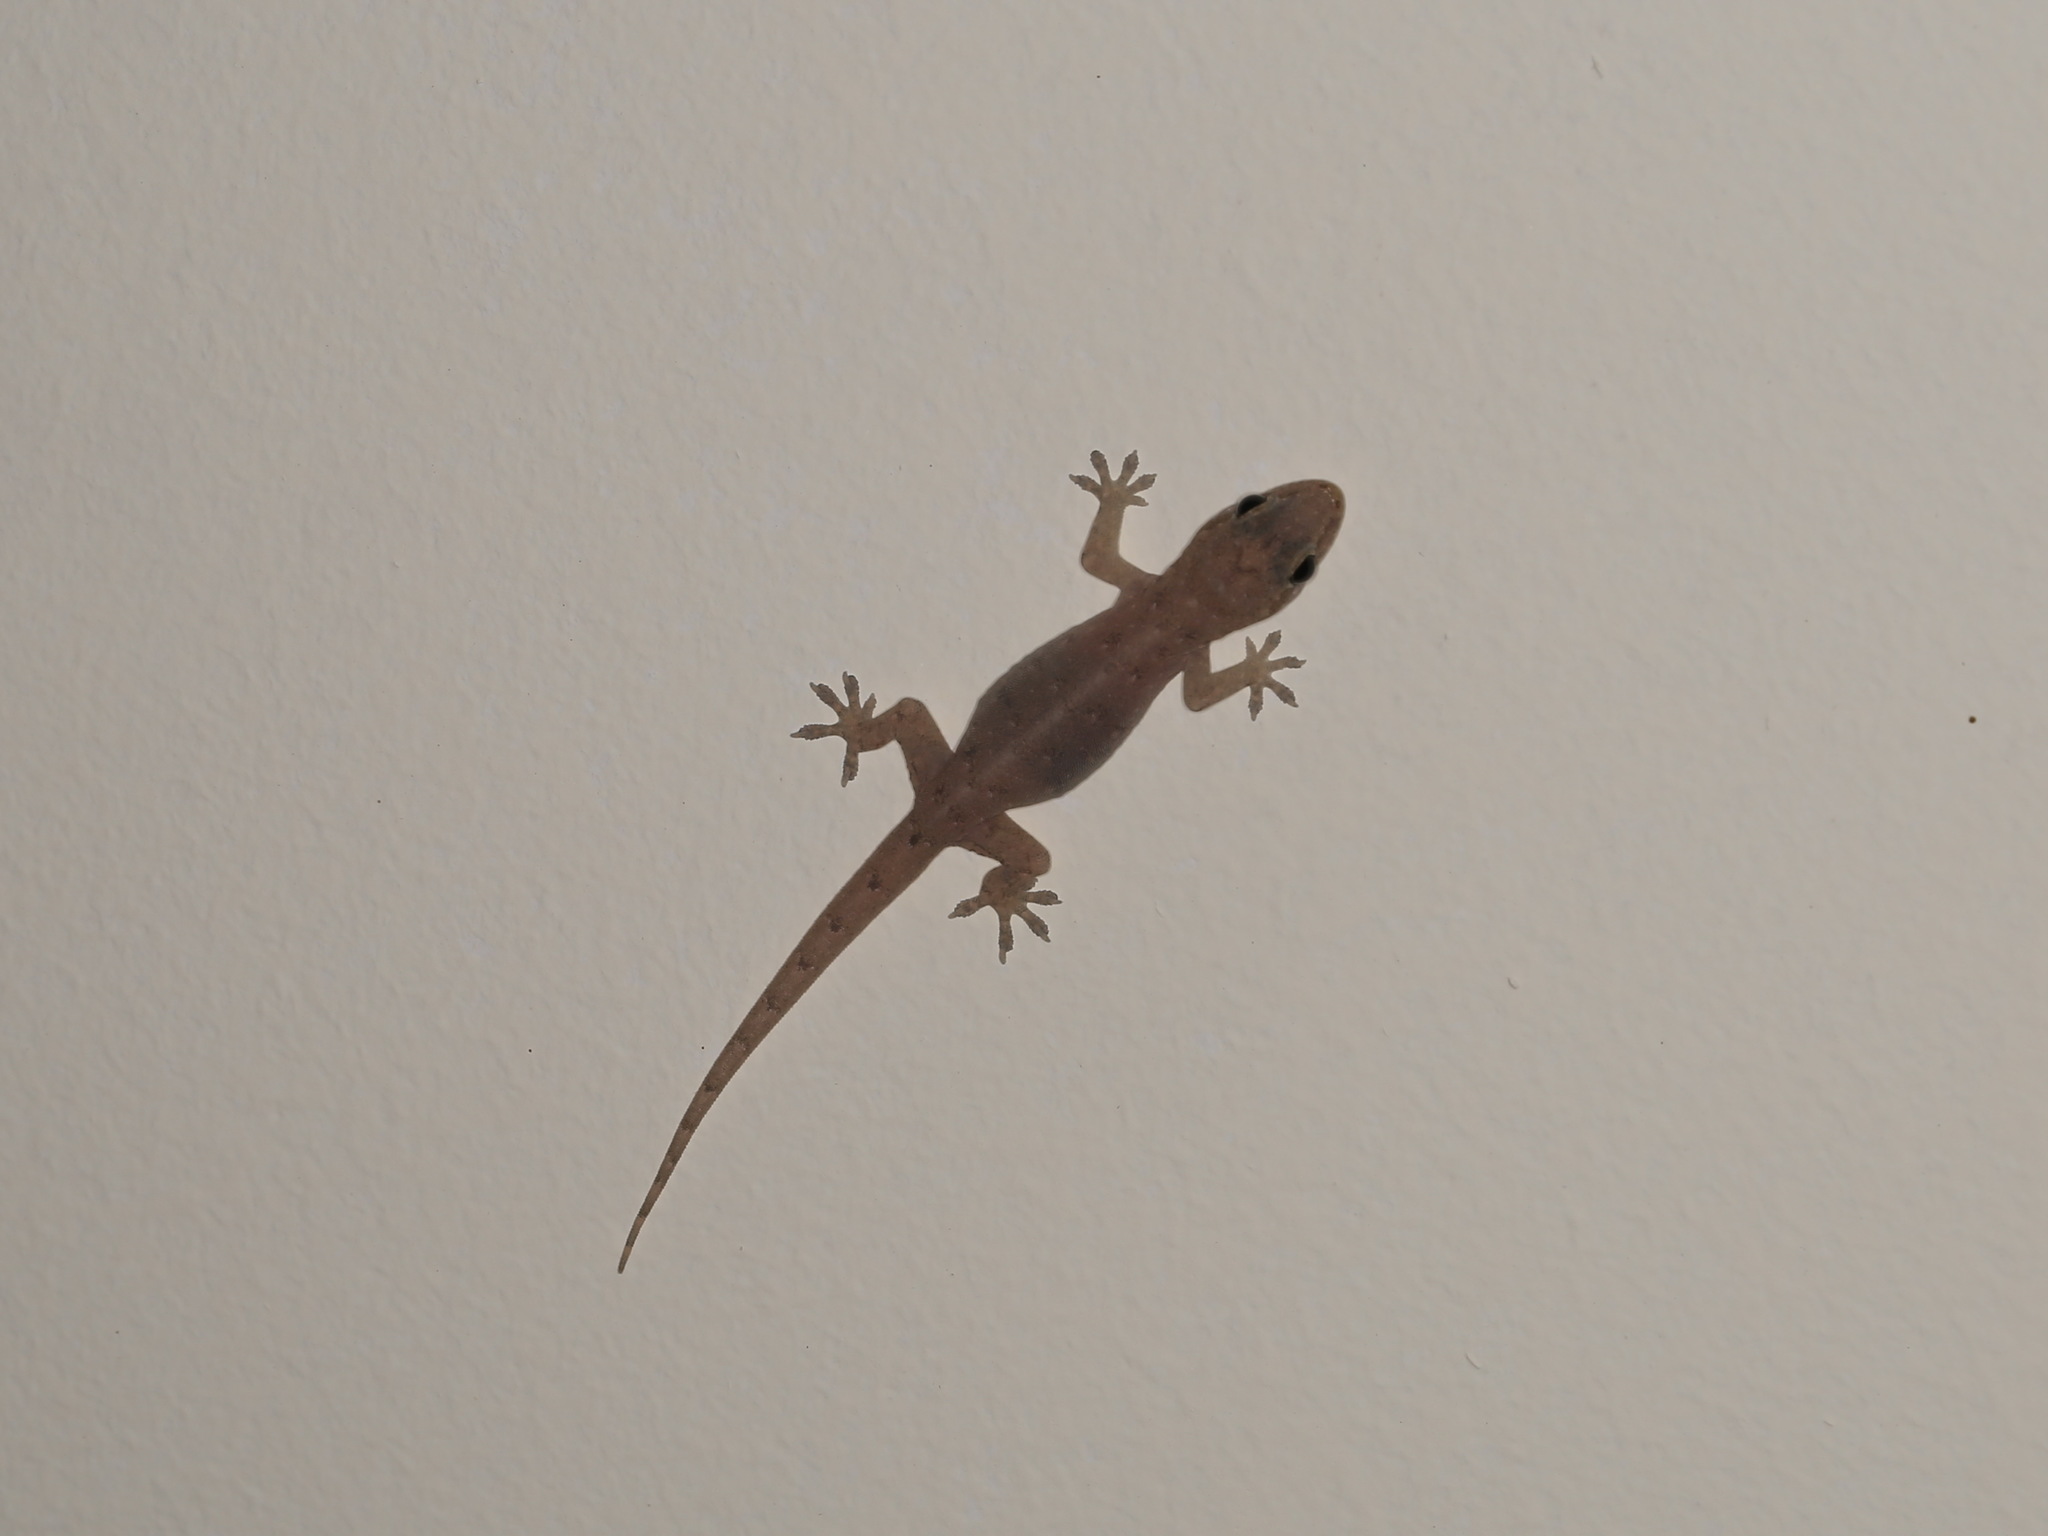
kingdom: Animalia
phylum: Chordata
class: Squamata
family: Gekkonidae
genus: Hemidactylus
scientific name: Hemidactylus bowringii
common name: Oriental leaf-toed gecko
